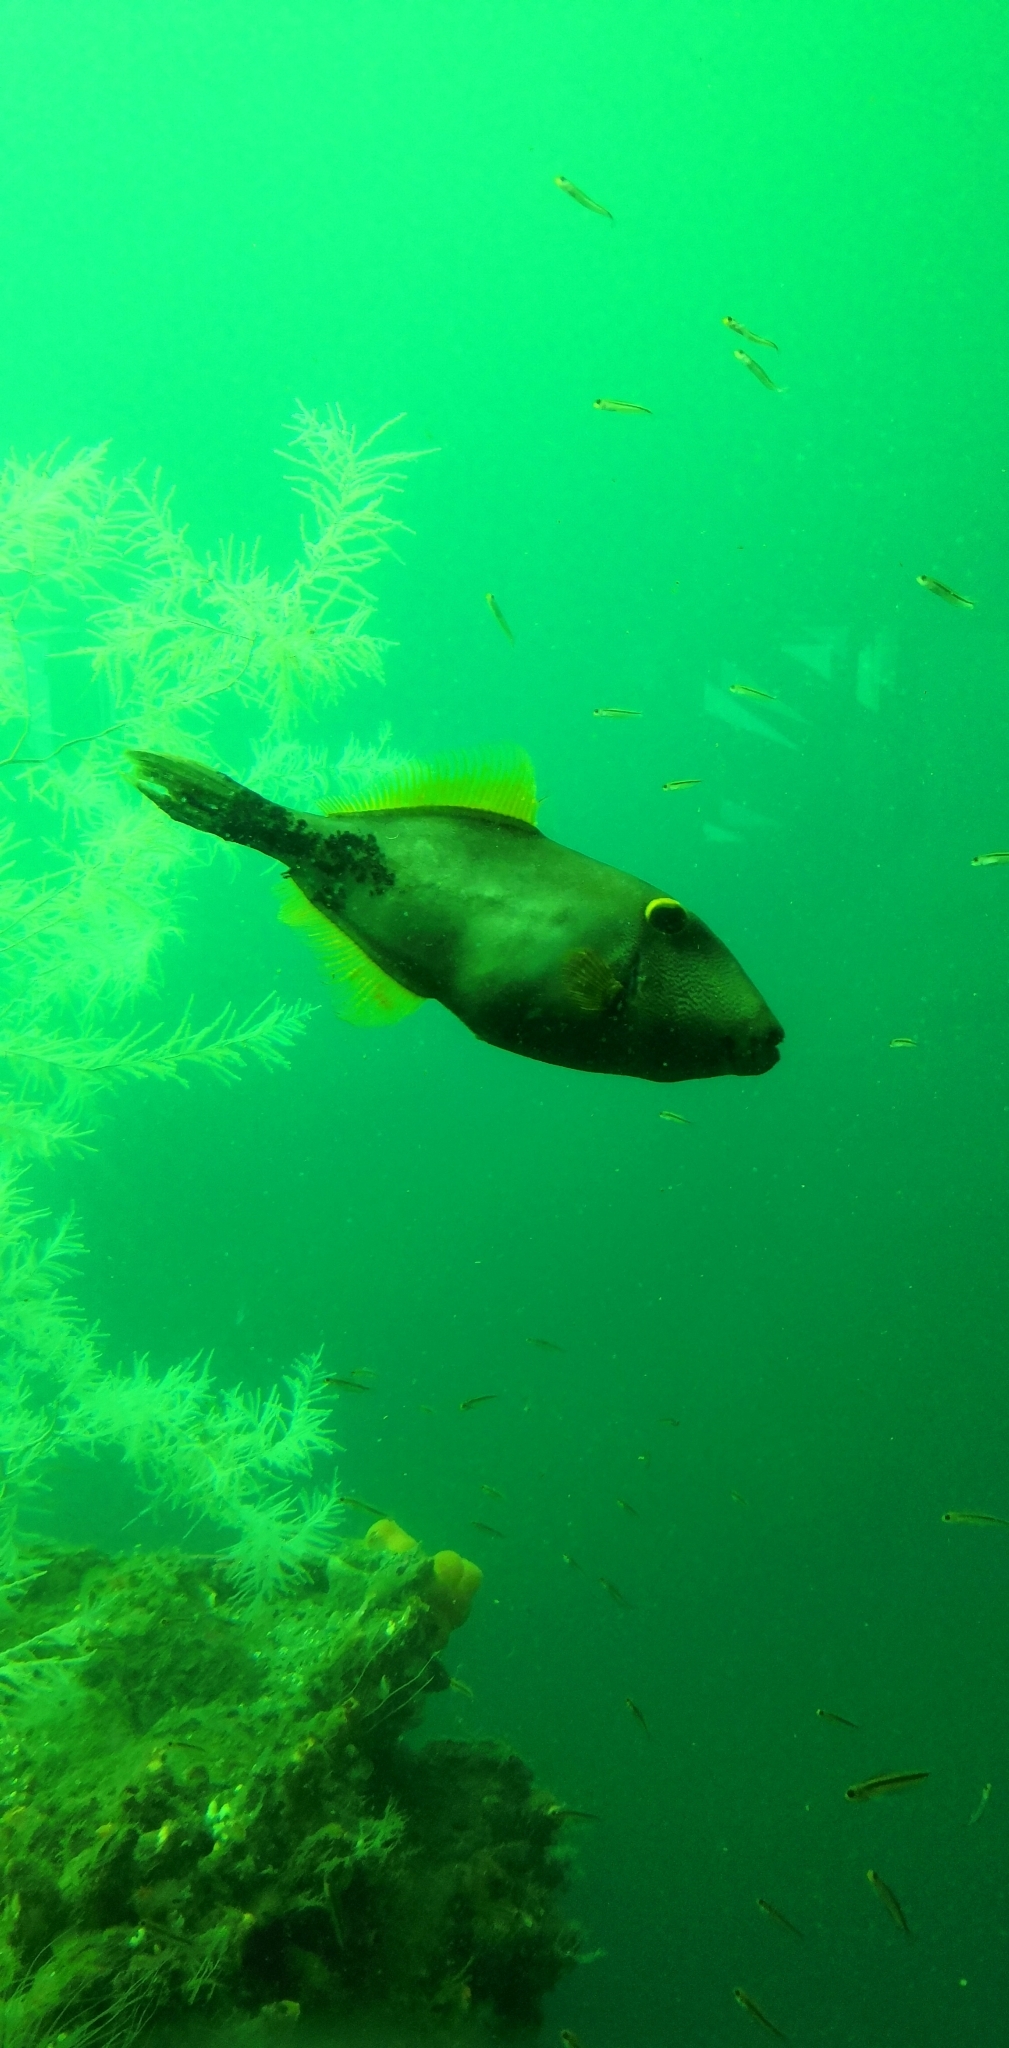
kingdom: Animalia
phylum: Chordata
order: Tetraodontiformes
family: Monacanthidae
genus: Meuschenia
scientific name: Meuschenia scaber
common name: Cosmopolitan leatherjacket
